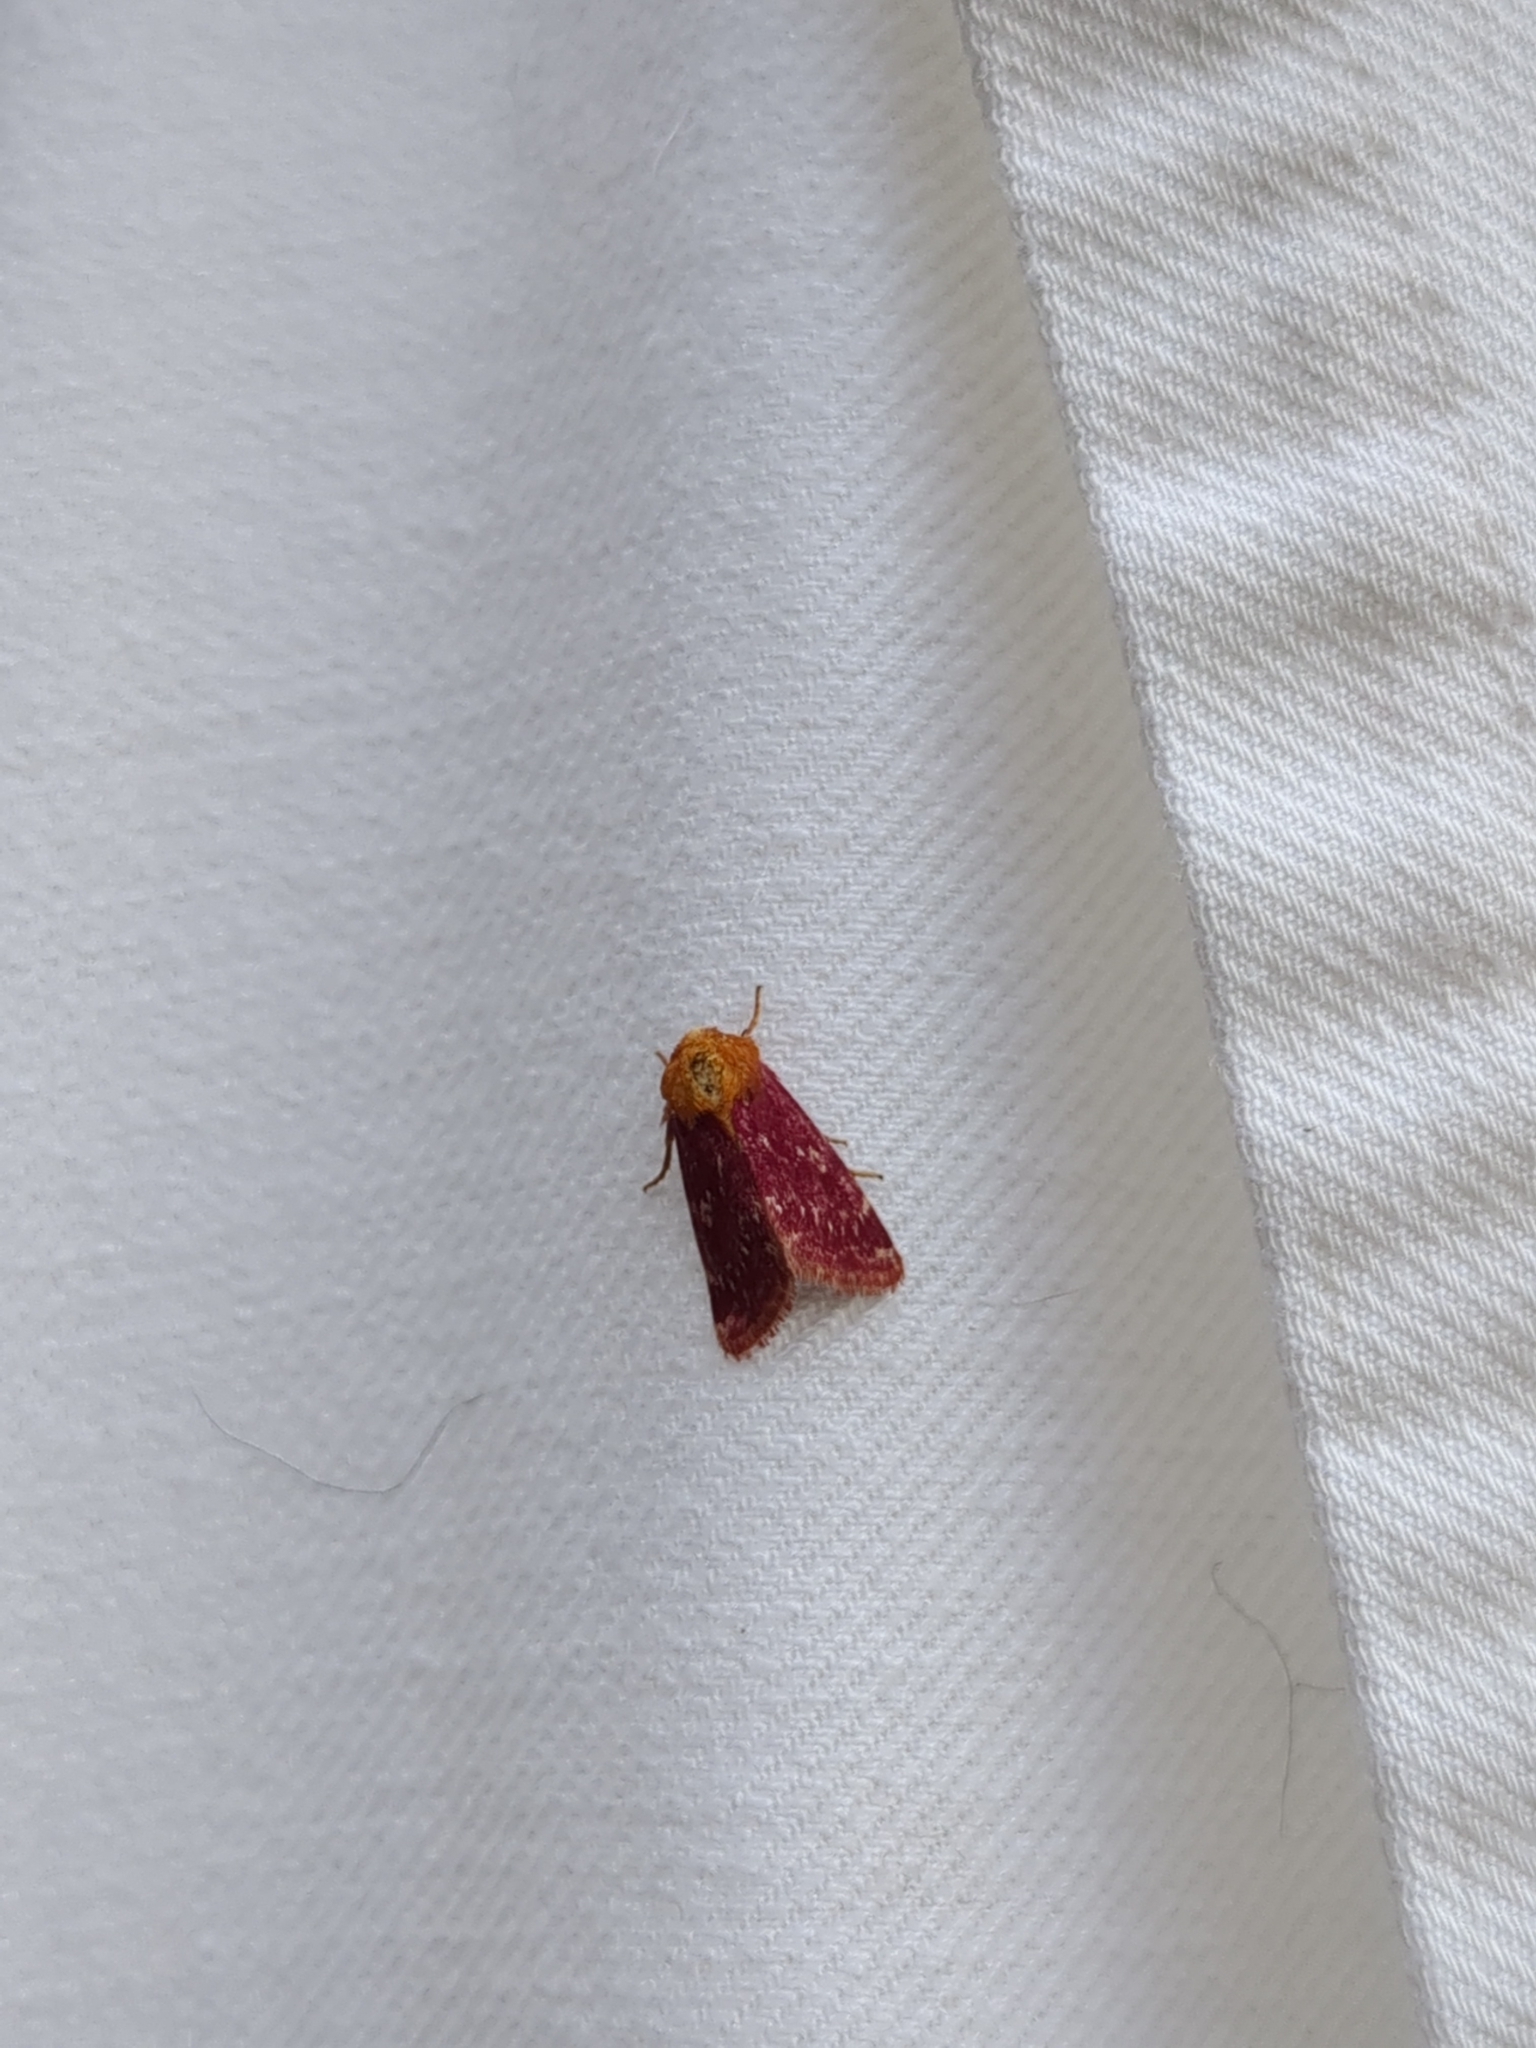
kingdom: Animalia
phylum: Arthropoda
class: Insecta
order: Lepidoptera
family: Noctuidae
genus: Schinia
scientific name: Schinia volupia
